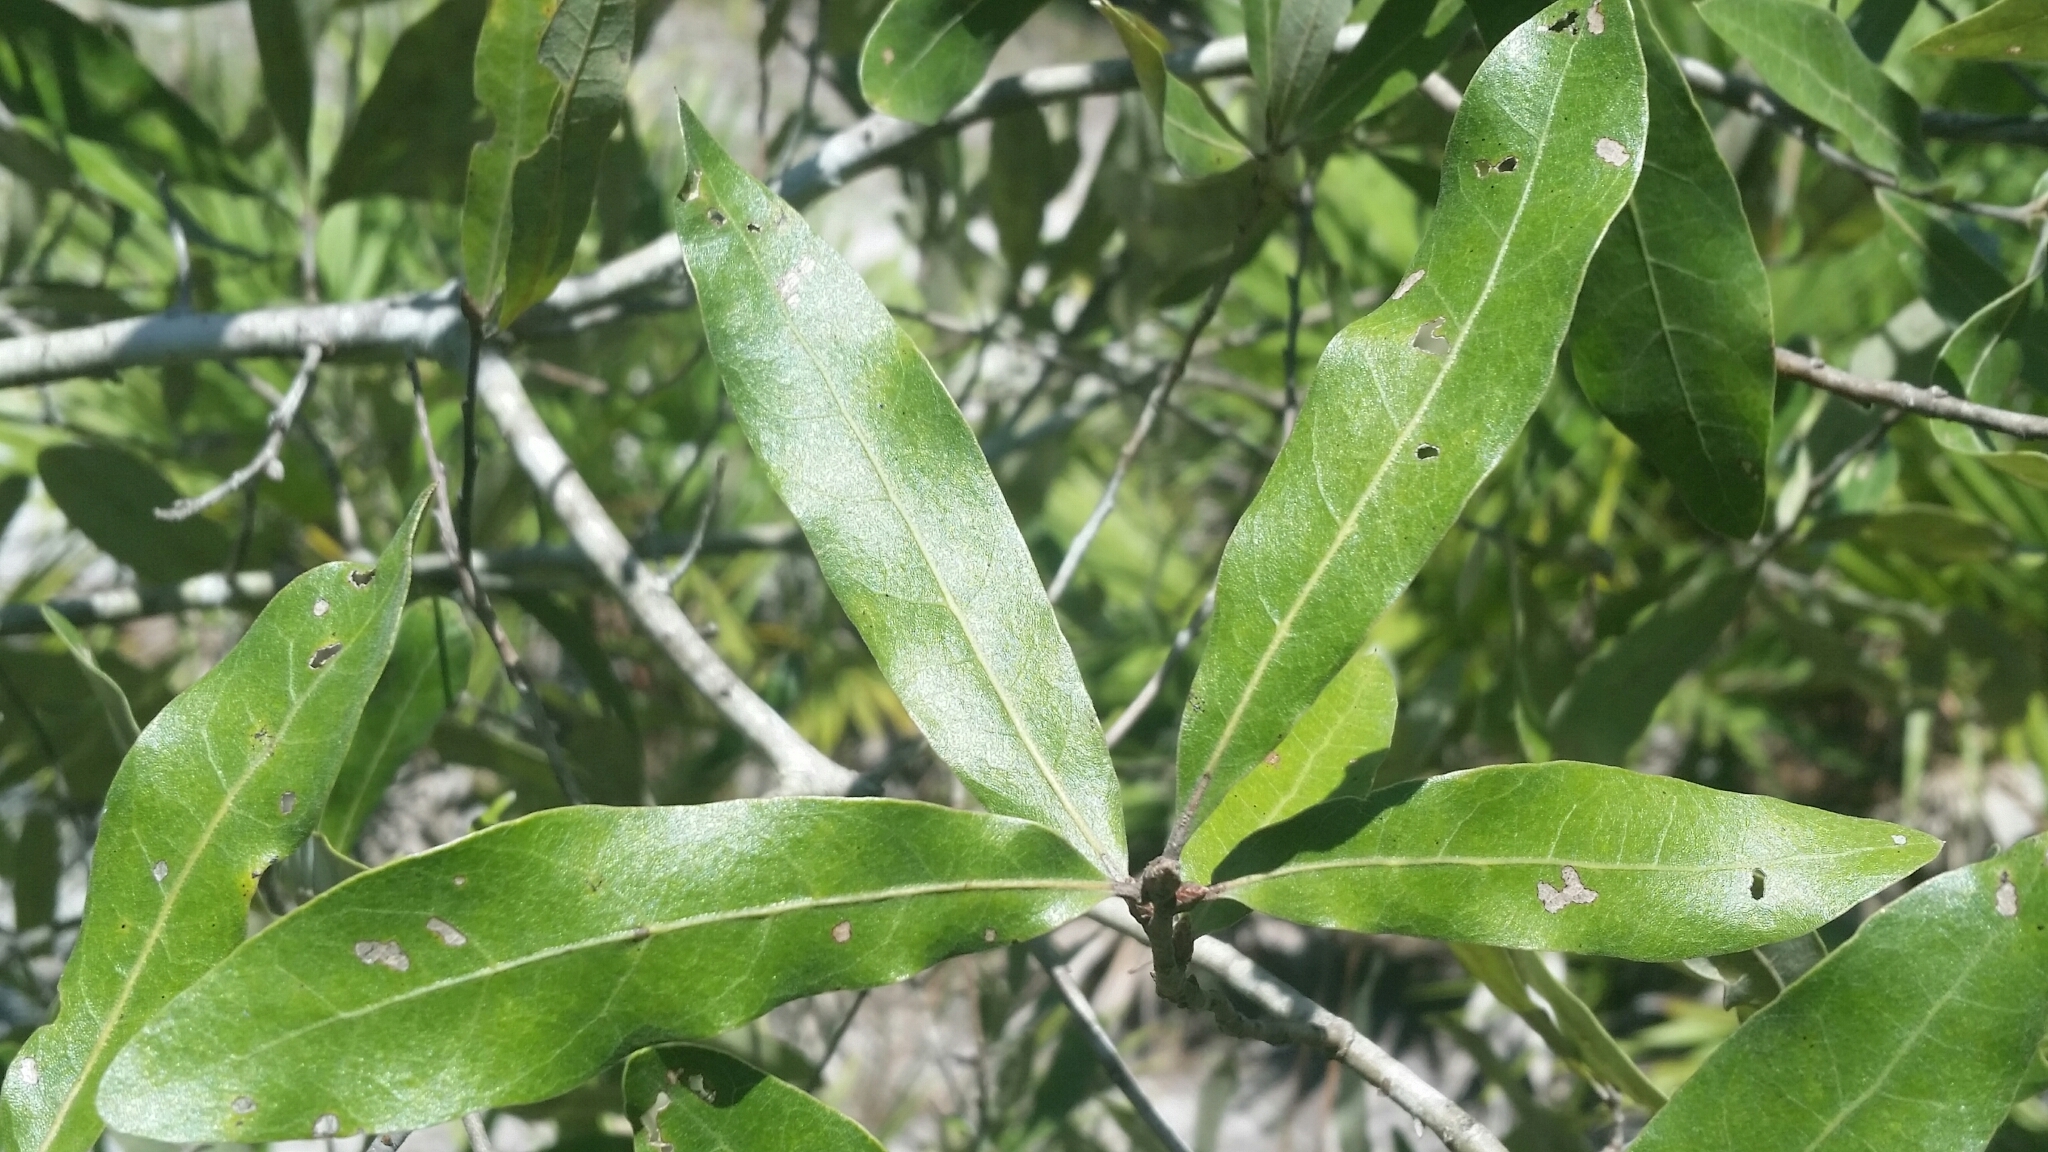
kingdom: Plantae
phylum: Tracheophyta
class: Magnoliopsida
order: Fagales
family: Fagaceae
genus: Quercus
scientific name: Quercus incana
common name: Bluejack oak
